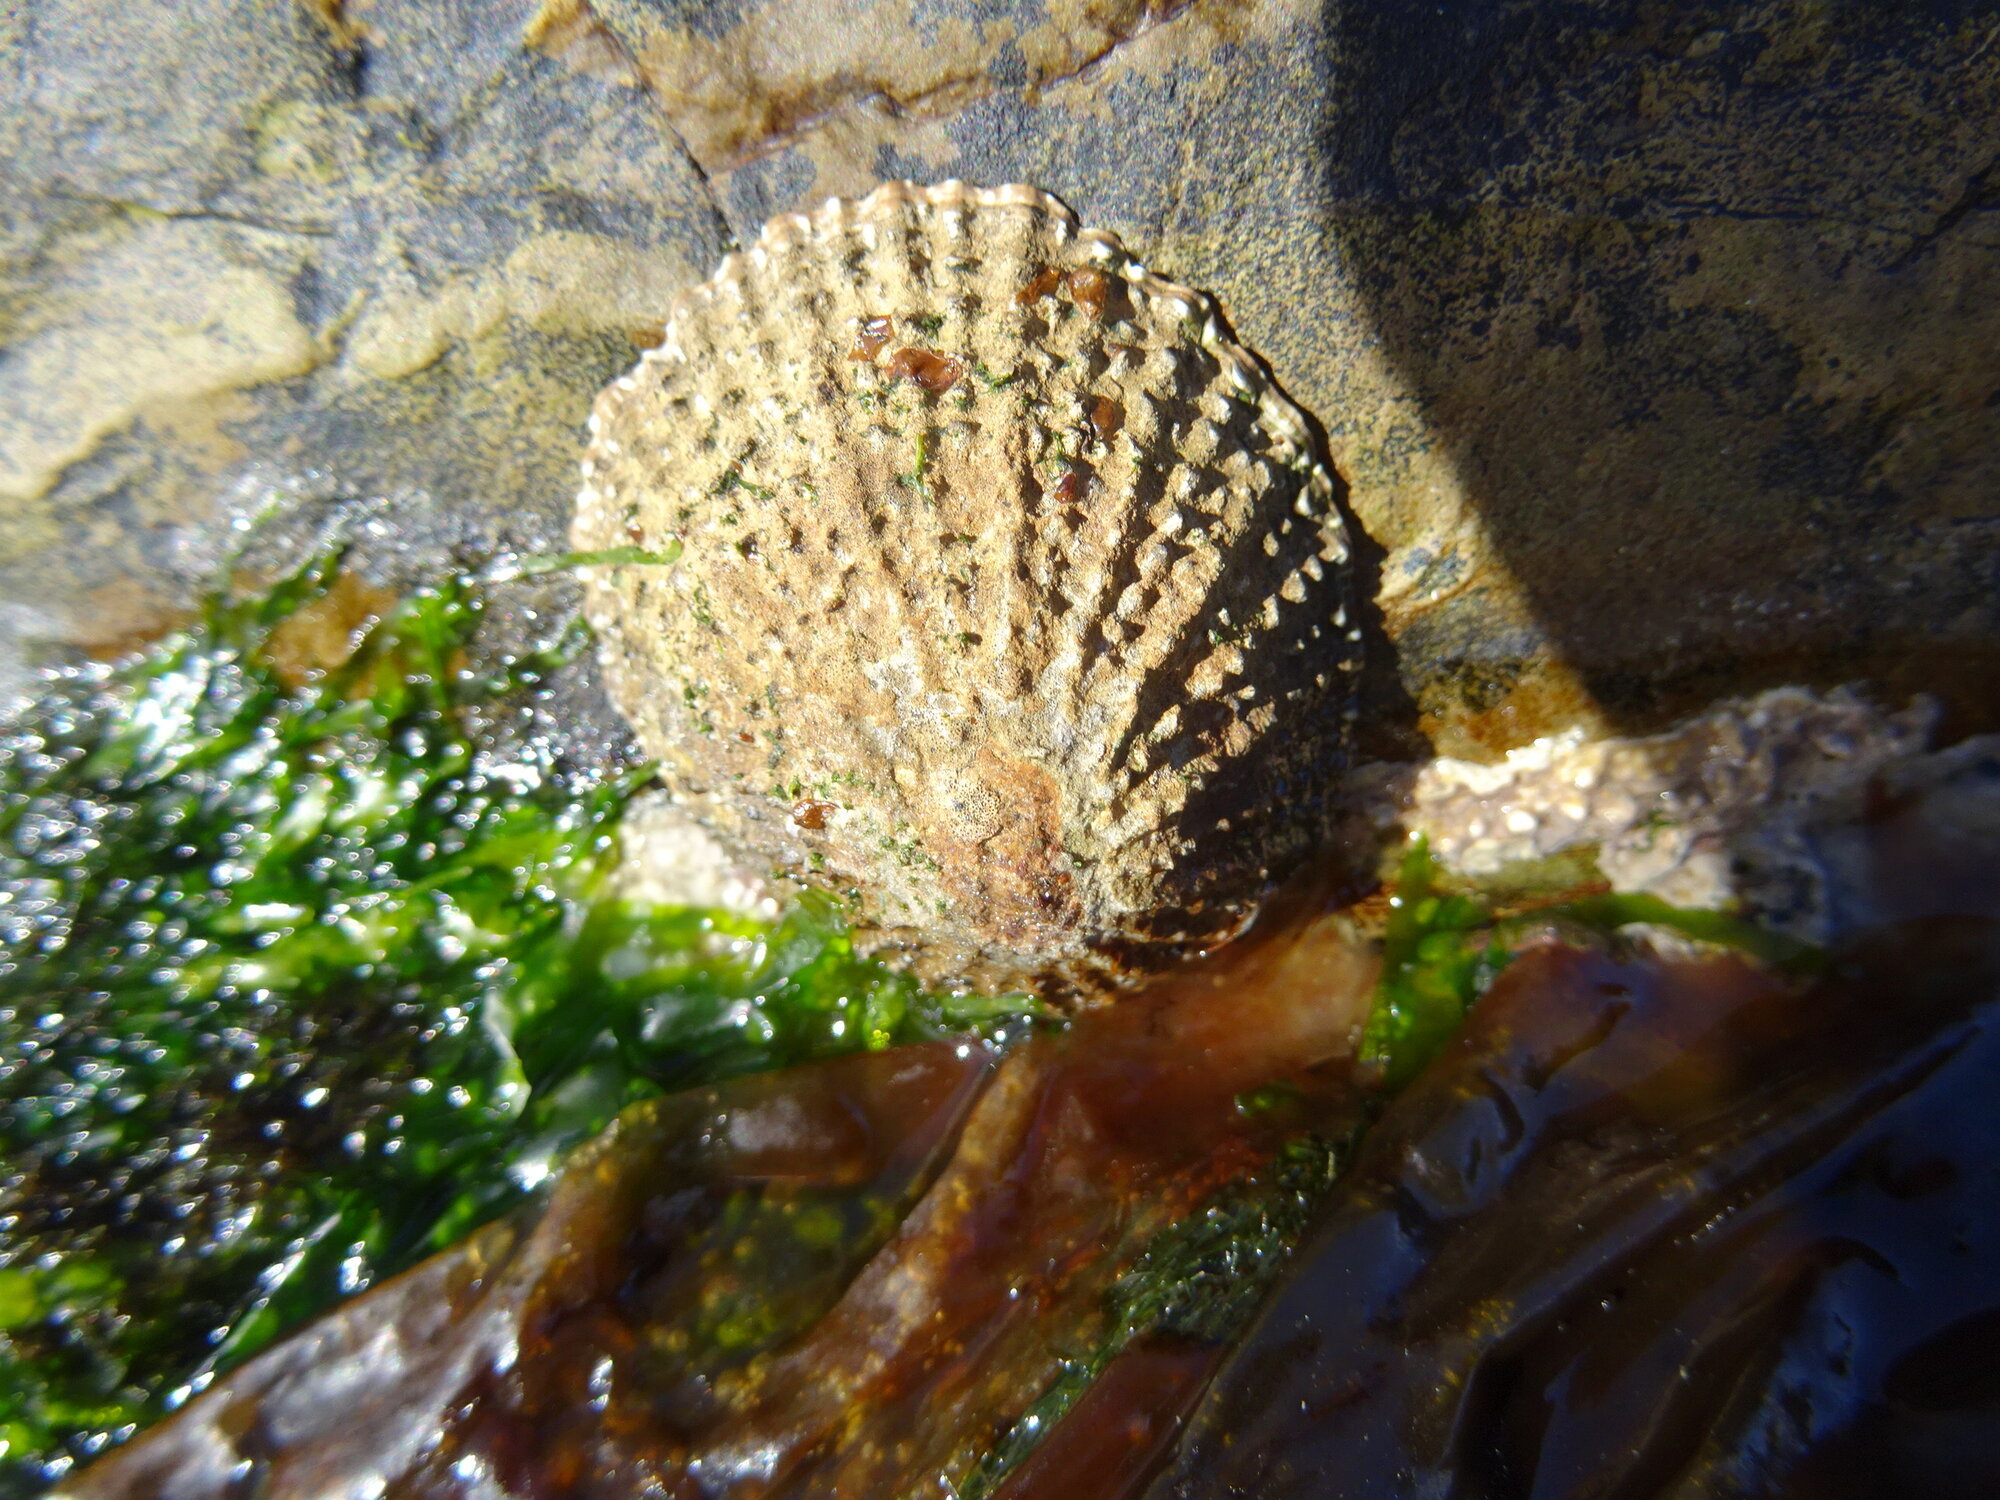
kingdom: Animalia
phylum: Mollusca
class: Gastropoda
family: Patellidae
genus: Scutellastra
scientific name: Scutellastra granularis
